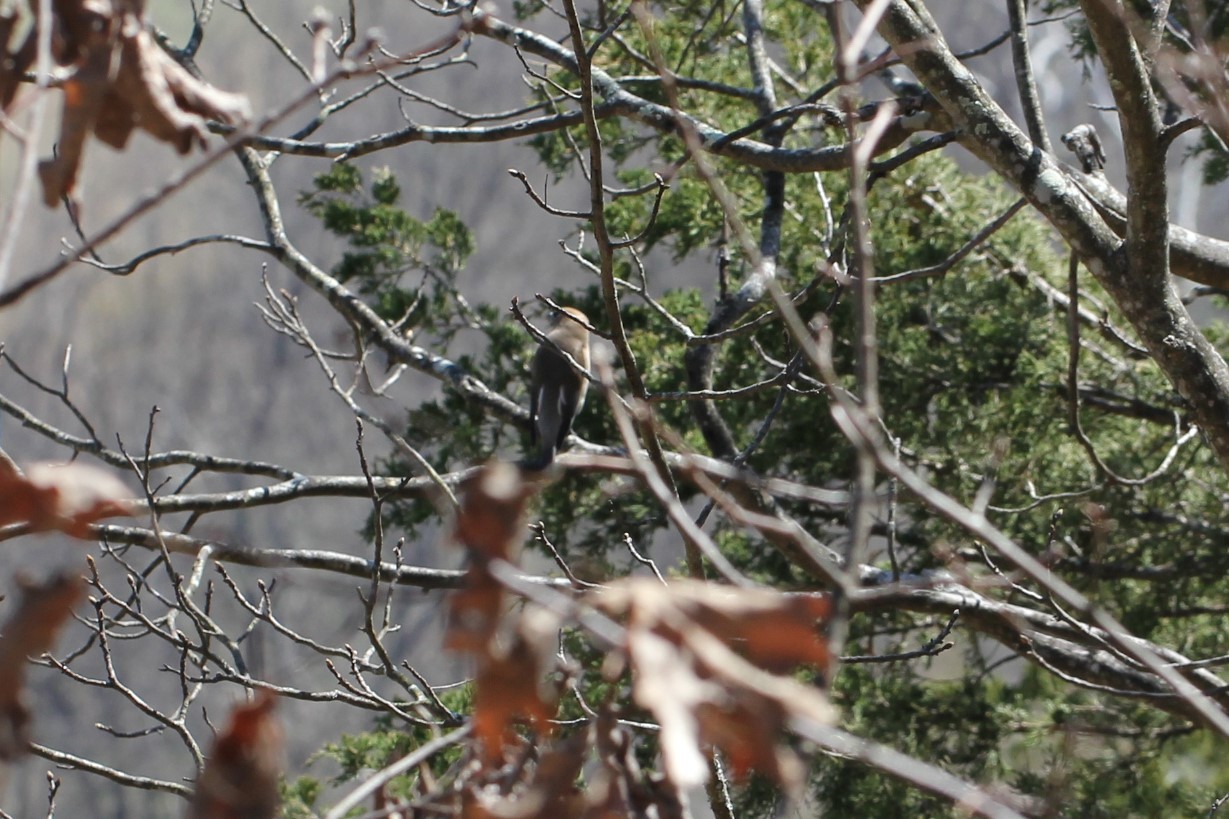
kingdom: Animalia
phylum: Chordata
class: Aves
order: Passeriformes
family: Bombycillidae
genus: Bombycilla
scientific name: Bombycilla cedrorum
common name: Cedar waxwing
